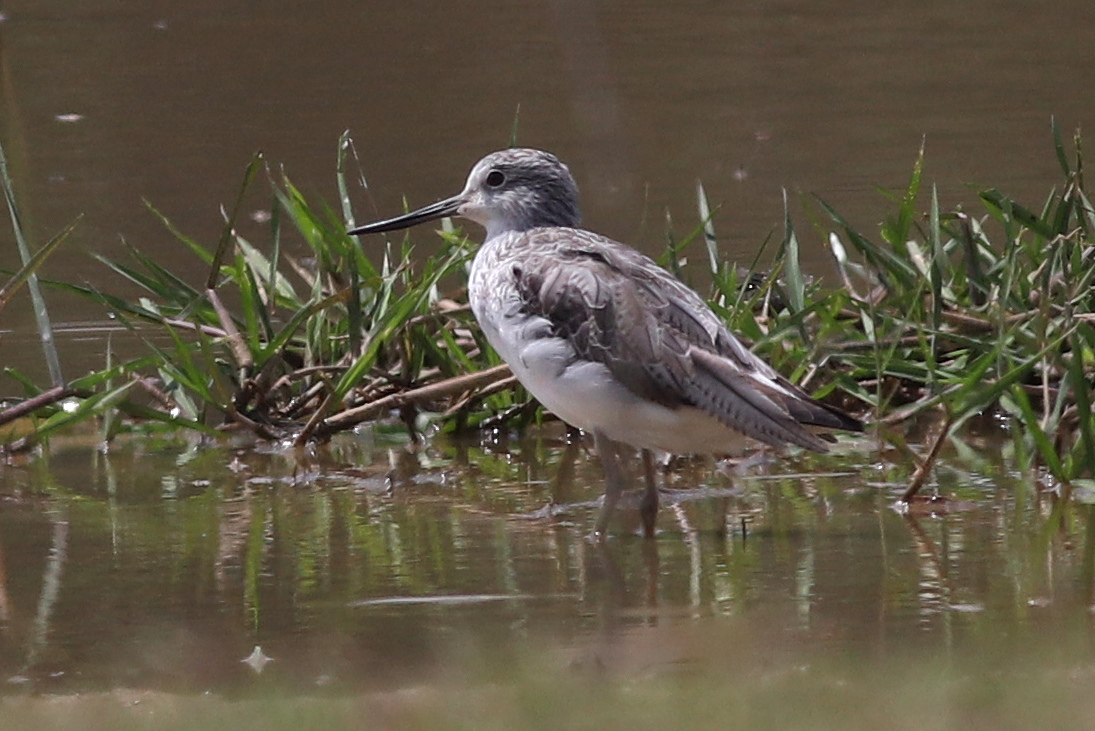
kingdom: Animalia
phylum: Chordata
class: Aves
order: Charadriiformes
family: Scolopacidae
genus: Tringa
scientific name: Tringa nebularia
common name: Common greenshank
